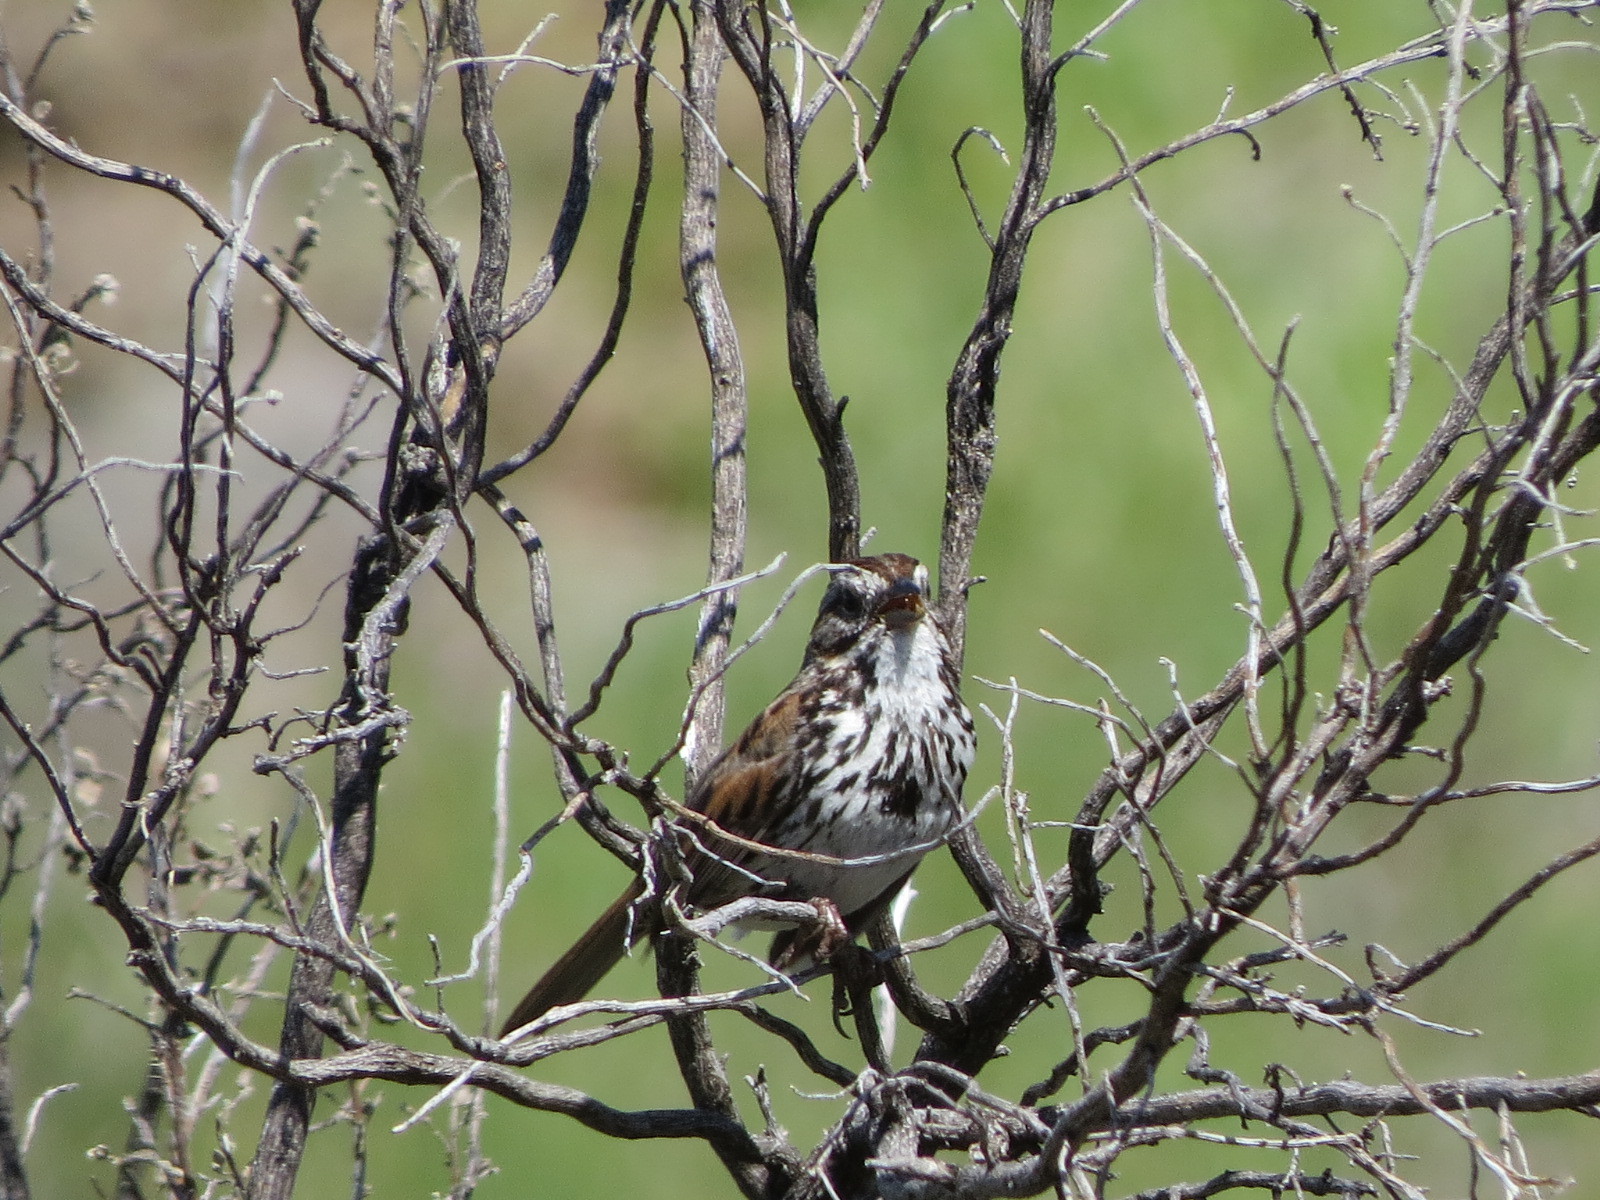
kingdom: Animalia
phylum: Chordata
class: Aves
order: Passeriformes
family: Passerellidae
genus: Melospiza
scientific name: Melospiza melodia
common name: Song sparrow
